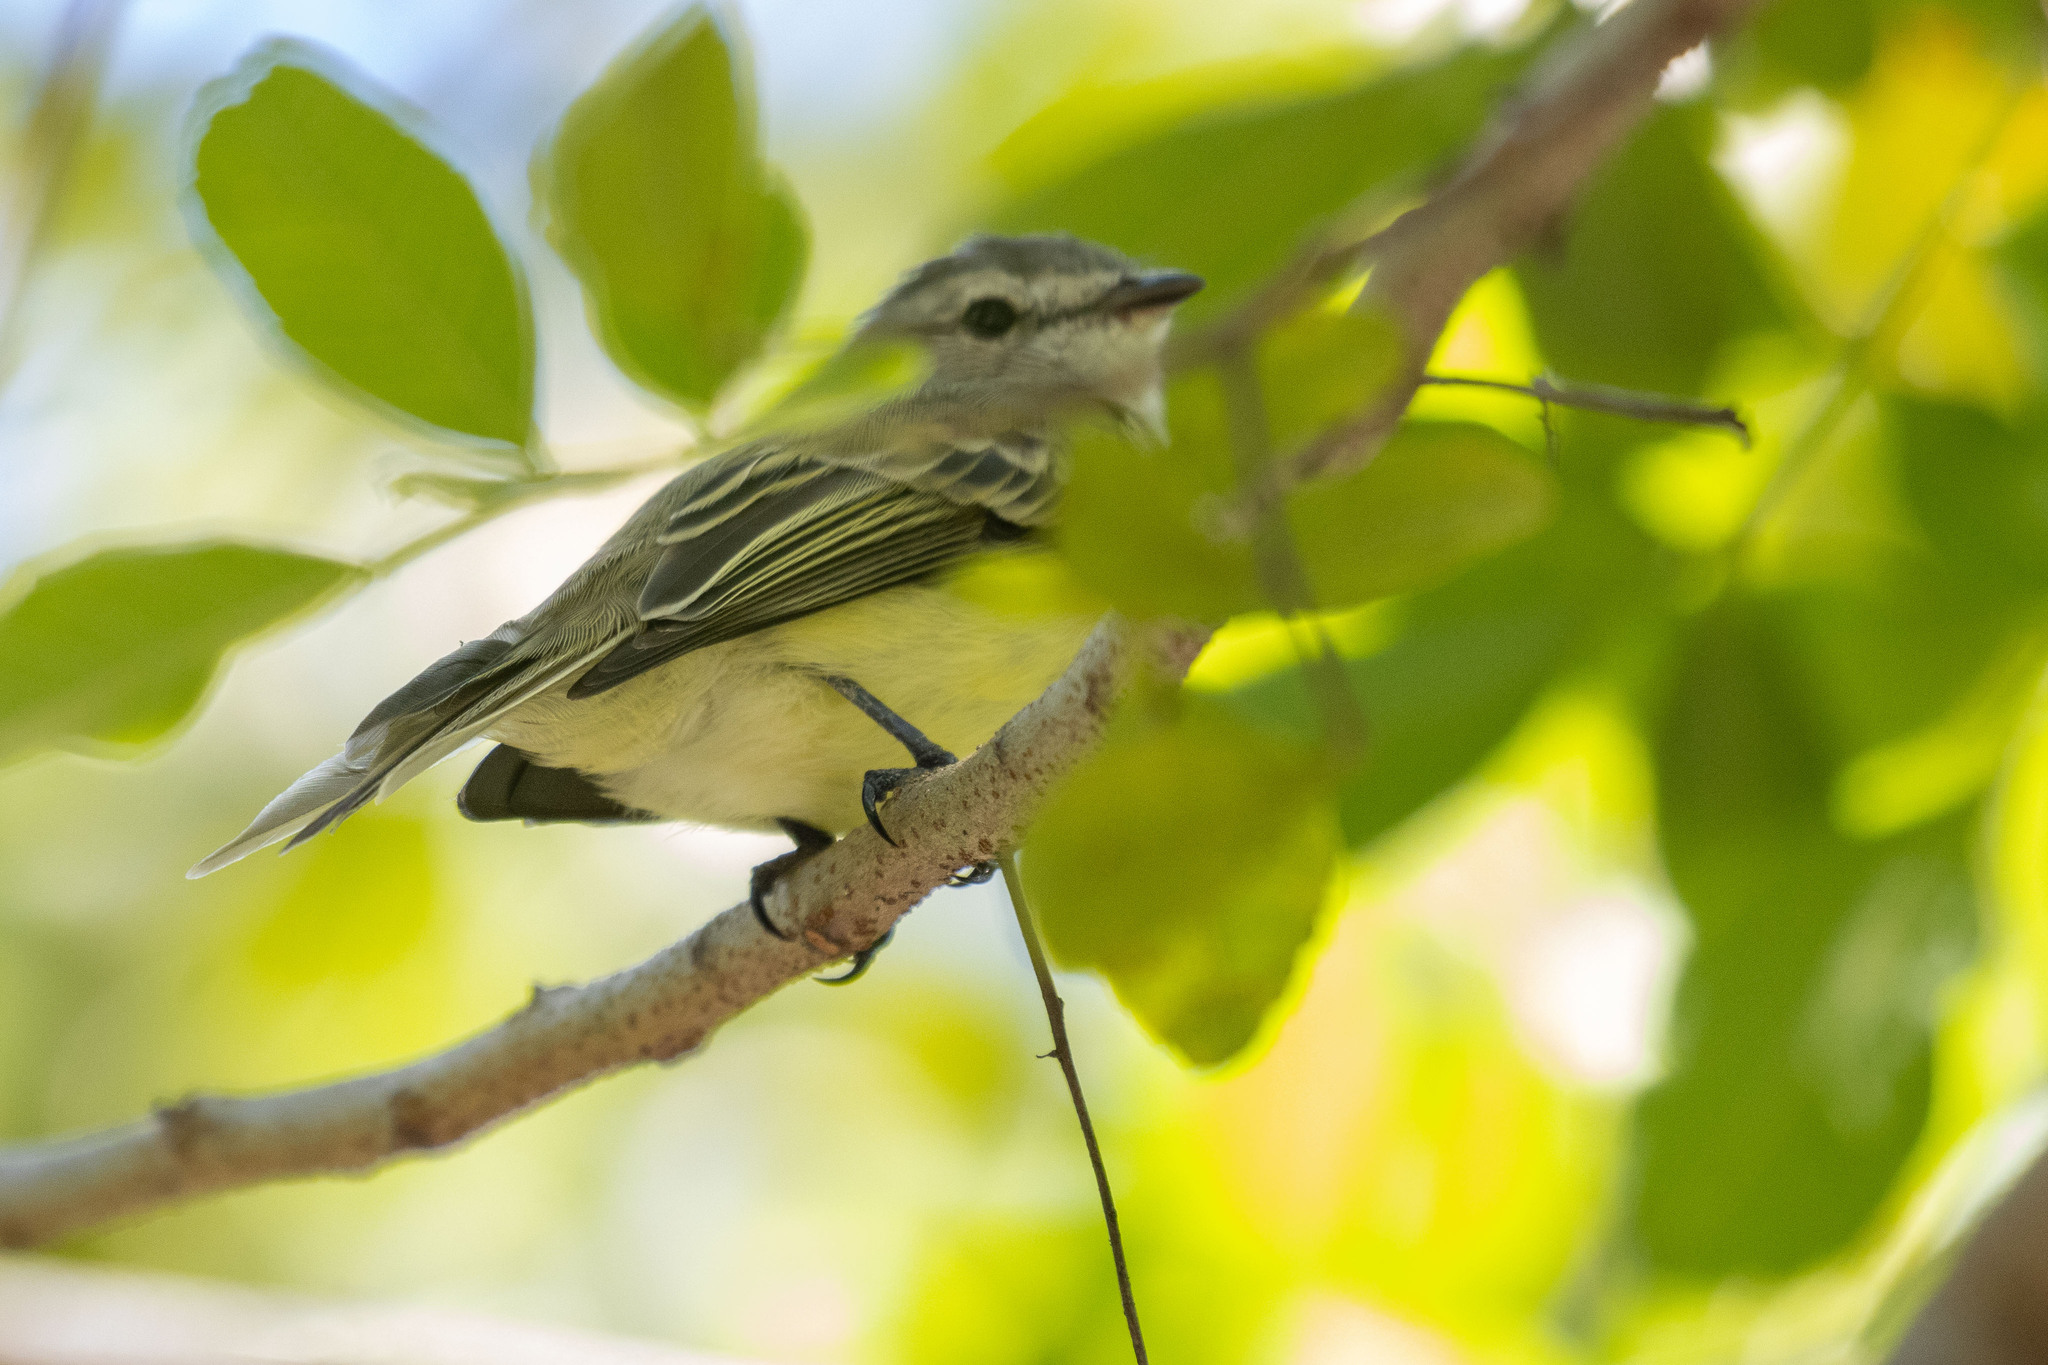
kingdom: Animalia
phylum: Chordata
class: Aves
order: Passeriformes
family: Tyrannidae
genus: Phyllomyias
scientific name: Phyllomyias fasciatus
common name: Planalto tyrannulet
